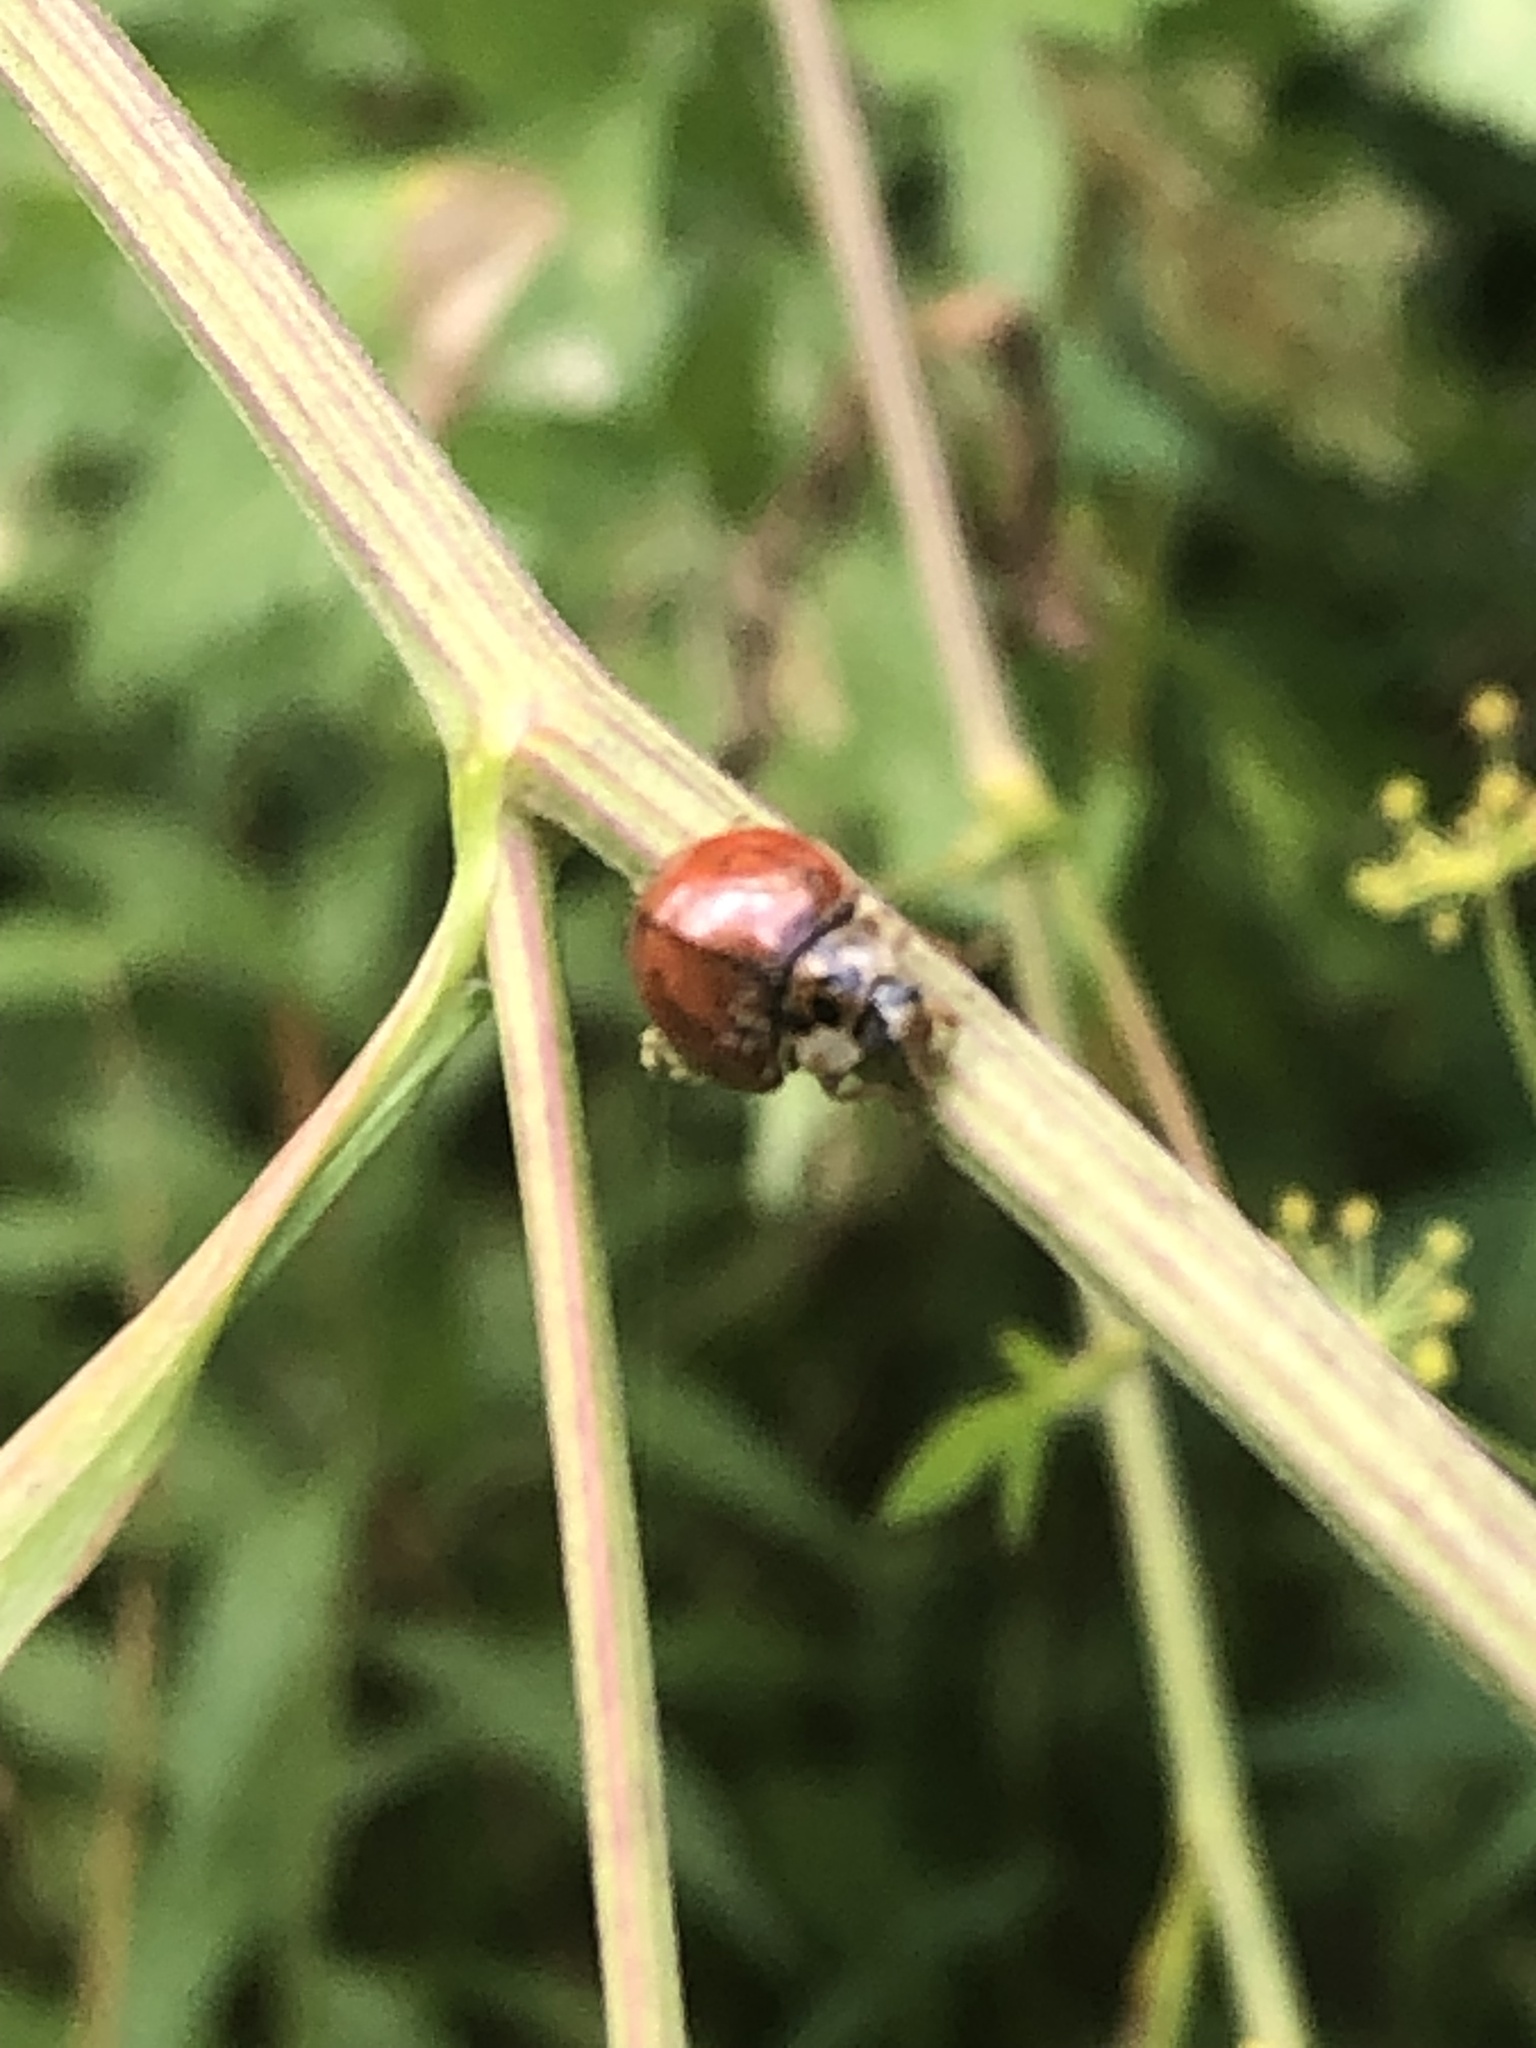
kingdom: Animalia
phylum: Arthropoda
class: Insecta
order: Coleoptera
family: Coccinellidae
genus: Harmonia
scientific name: Harmonia axyridis
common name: Harlequin ladybird
